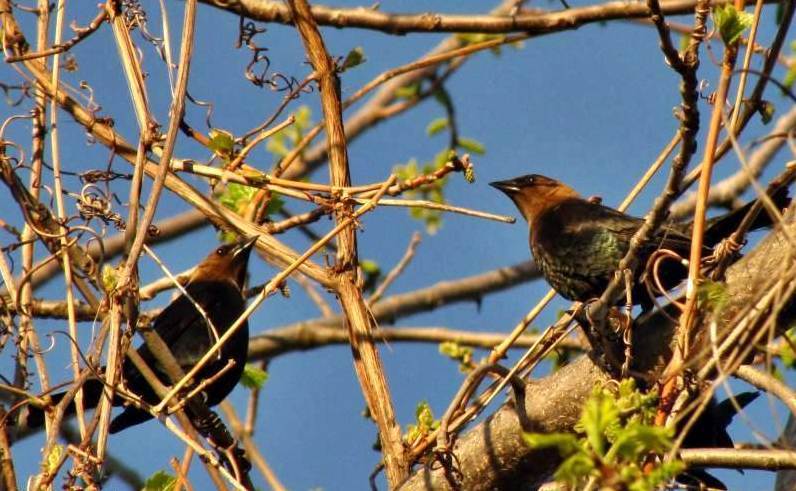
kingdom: Animalia
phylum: Chordata
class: Aves
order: Passeriformes
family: Icteridae
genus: Molothrus
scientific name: Molothrus ater
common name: Brown-headed cowbird
